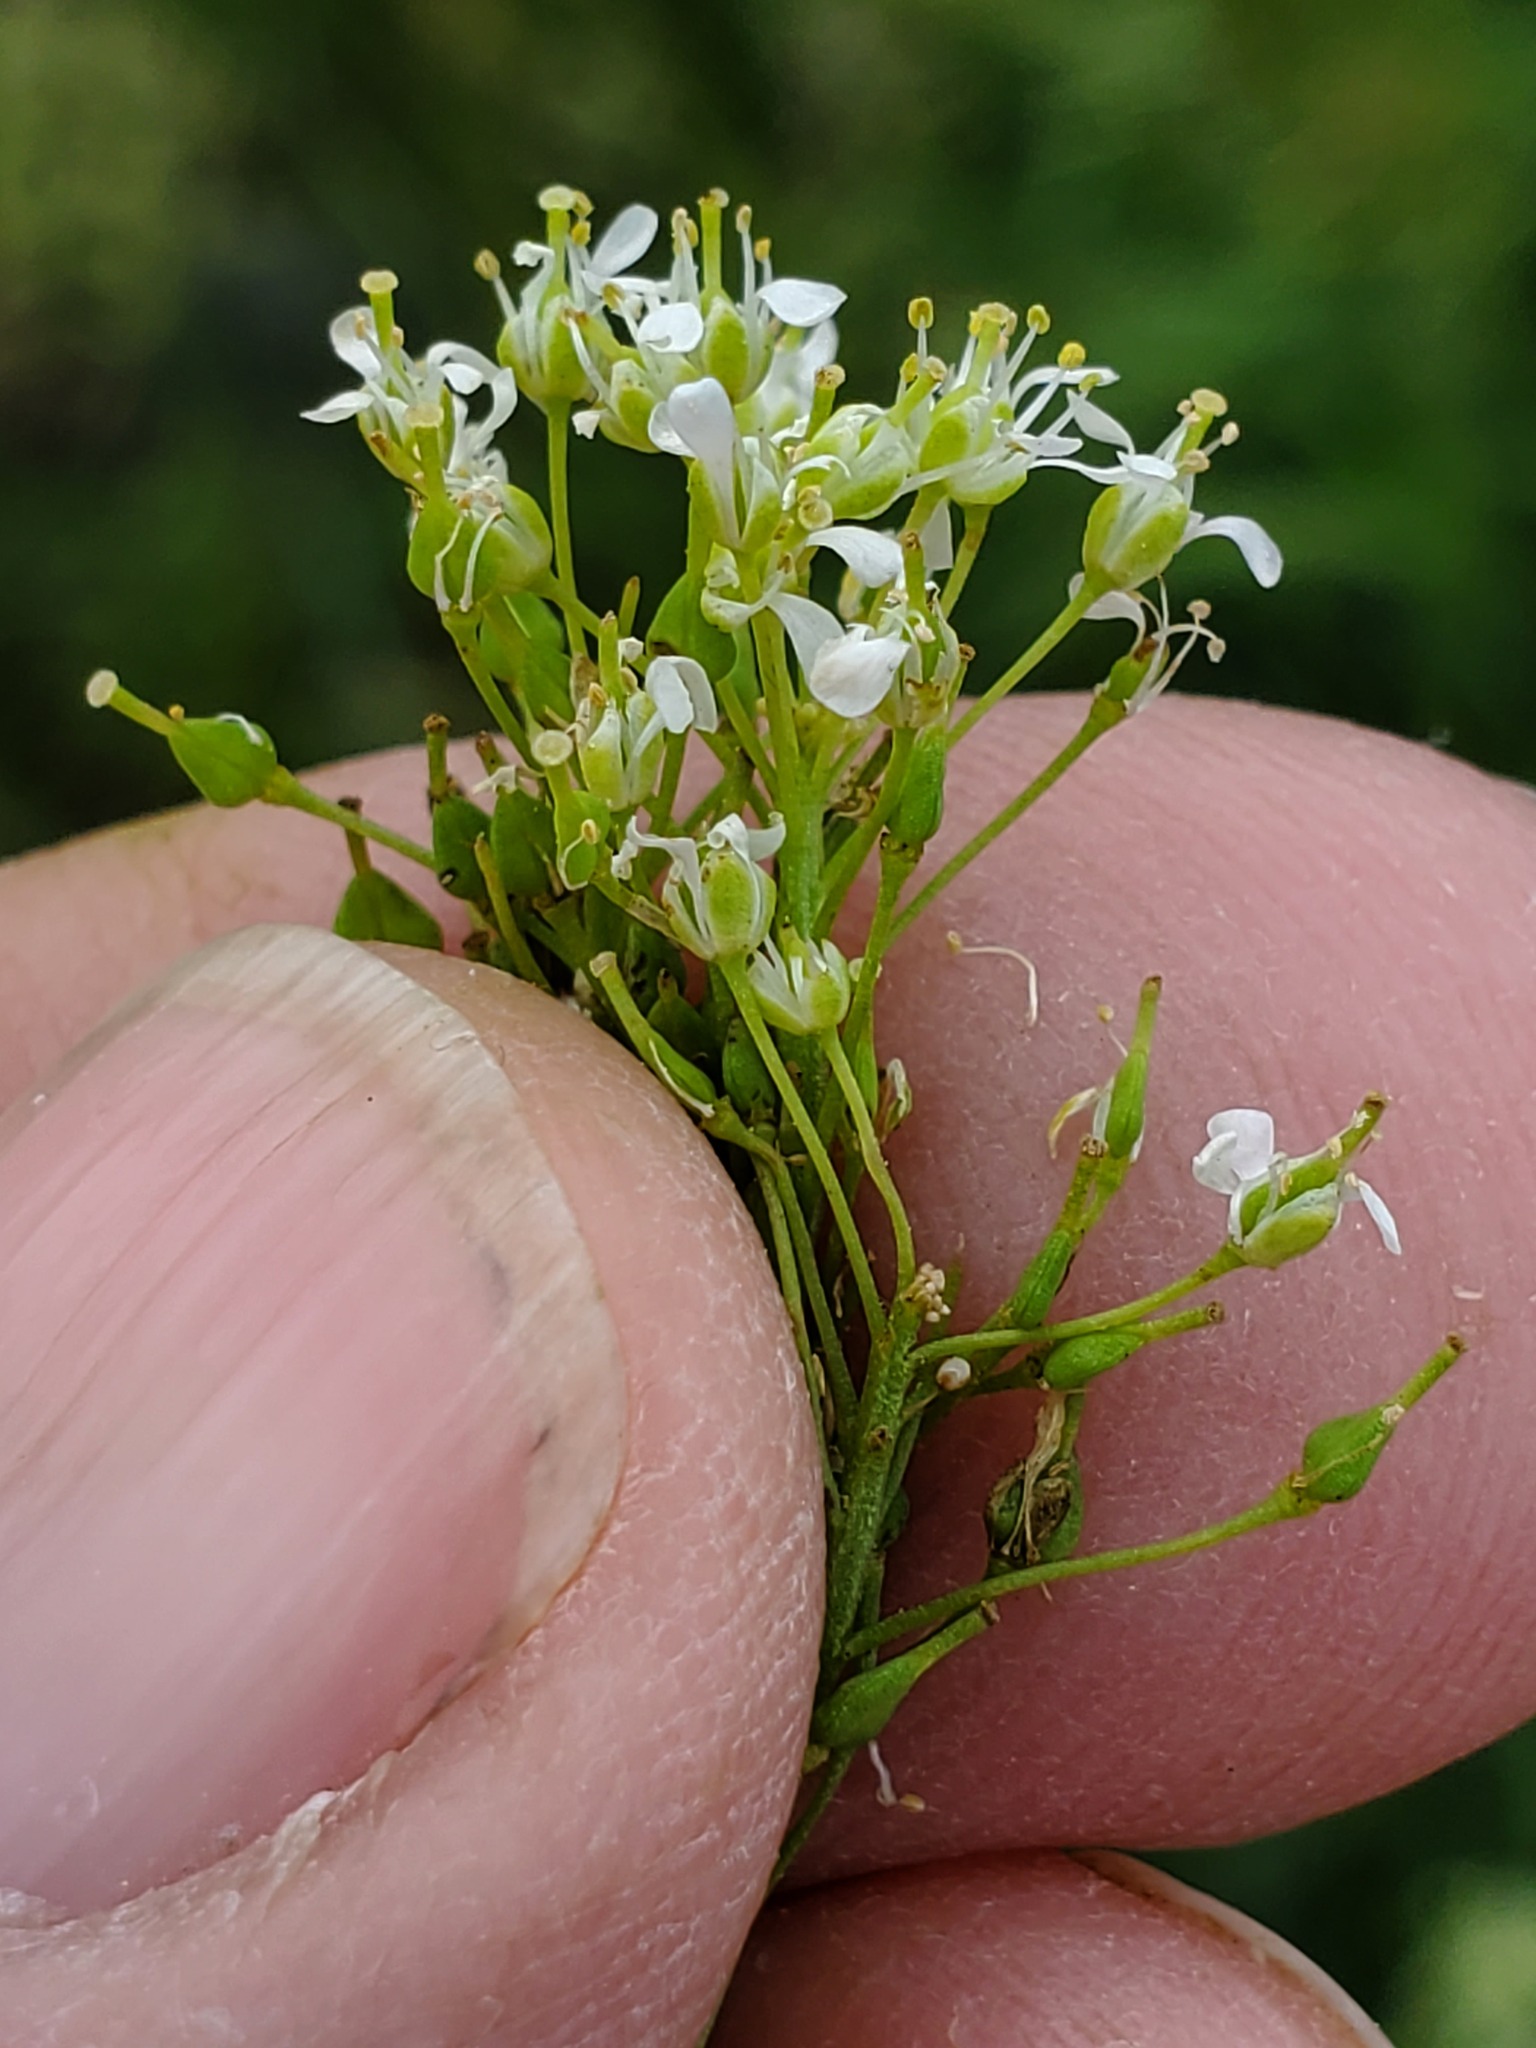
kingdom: Plantae
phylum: Tracheophyta
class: Magnoliopsida
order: Brassicales
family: Brassicaceae
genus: Lepidium
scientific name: Lepidium draba
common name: Hoary cress
